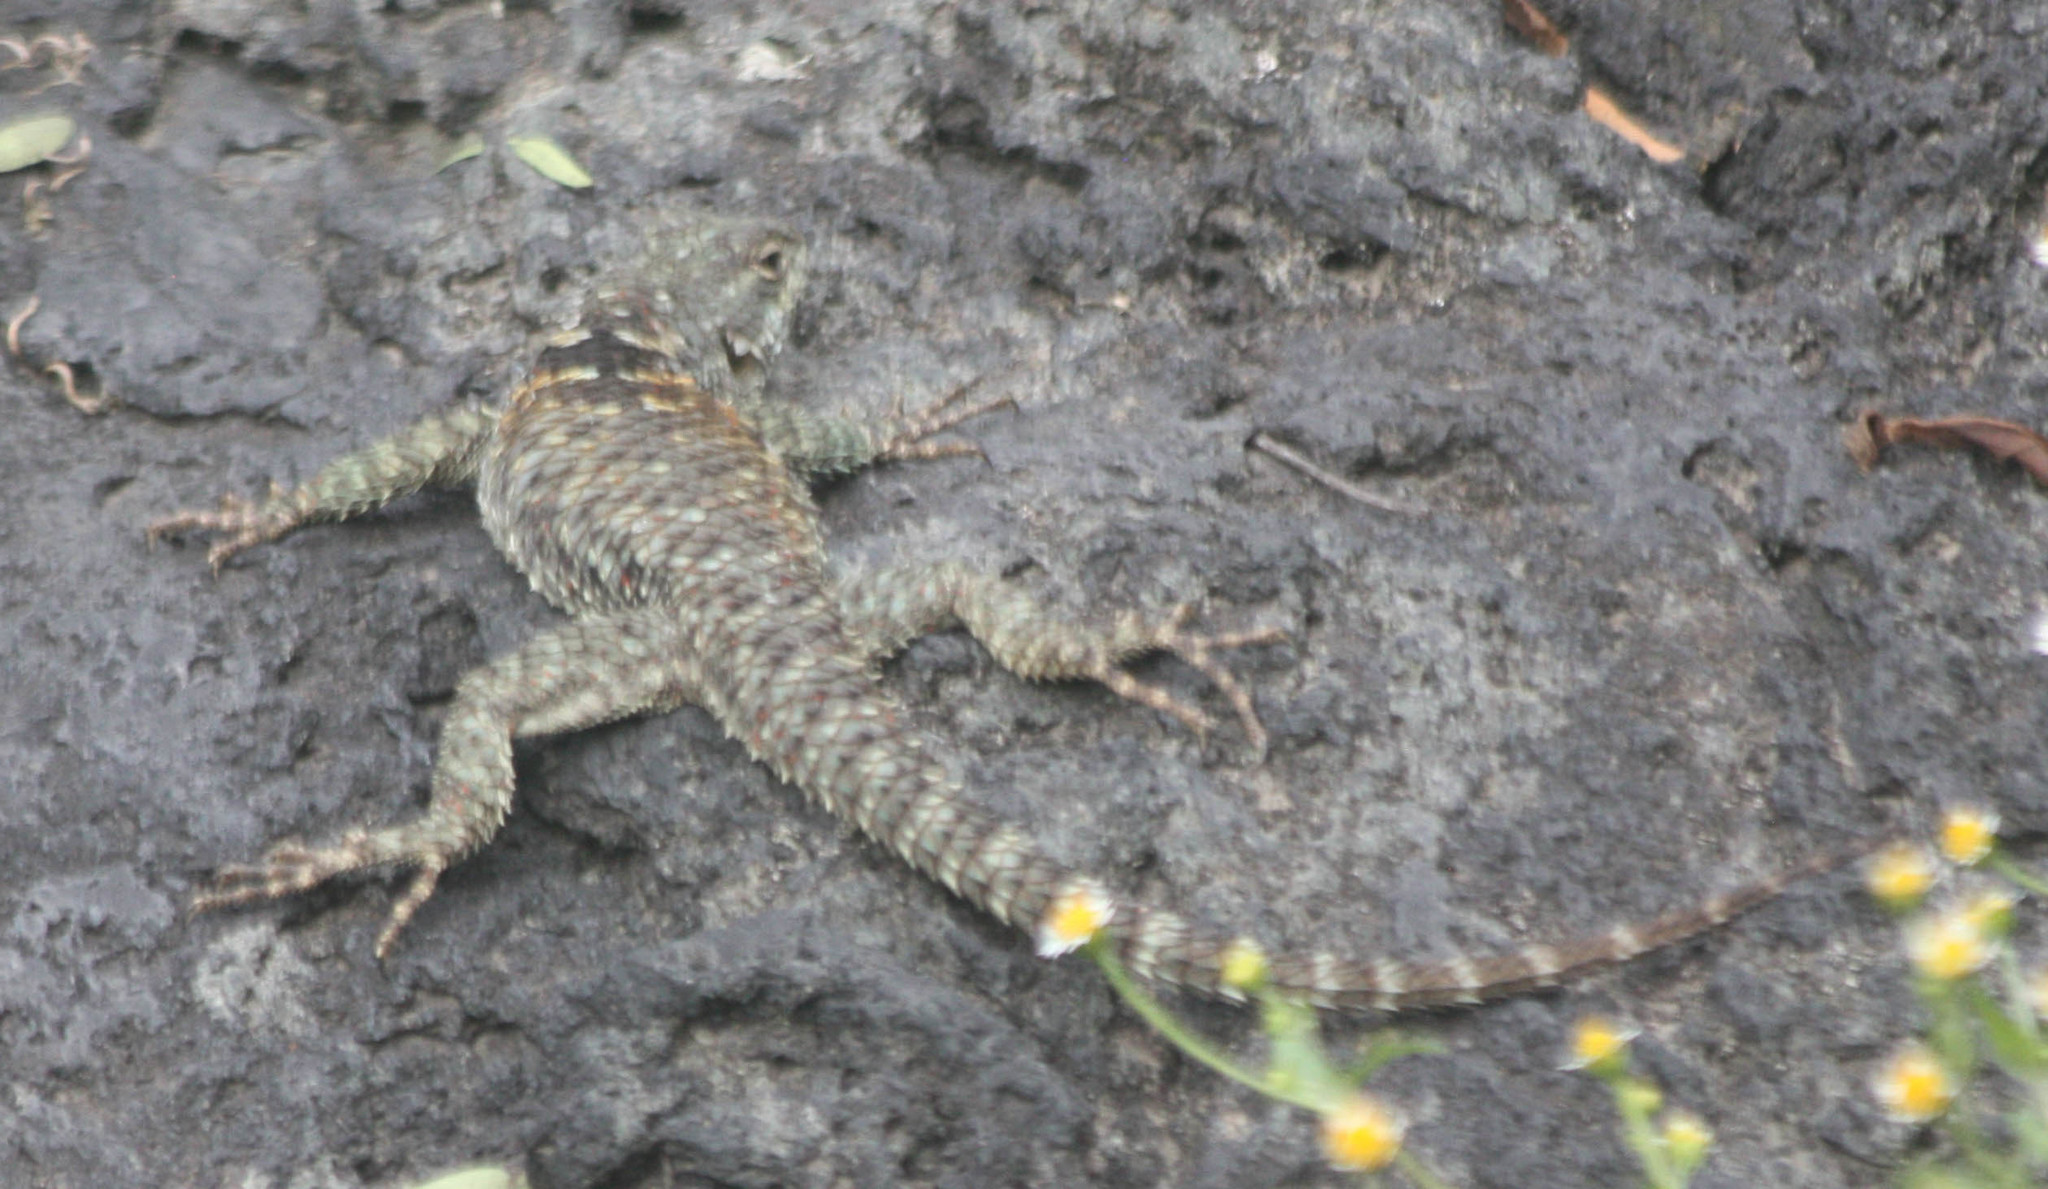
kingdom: Animalia
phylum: Chordata
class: Squamata
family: Phrynosomatidae
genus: Sceloporus
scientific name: Sceloporus torquatus
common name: Central plateau torquate lizard [melanogaster]
